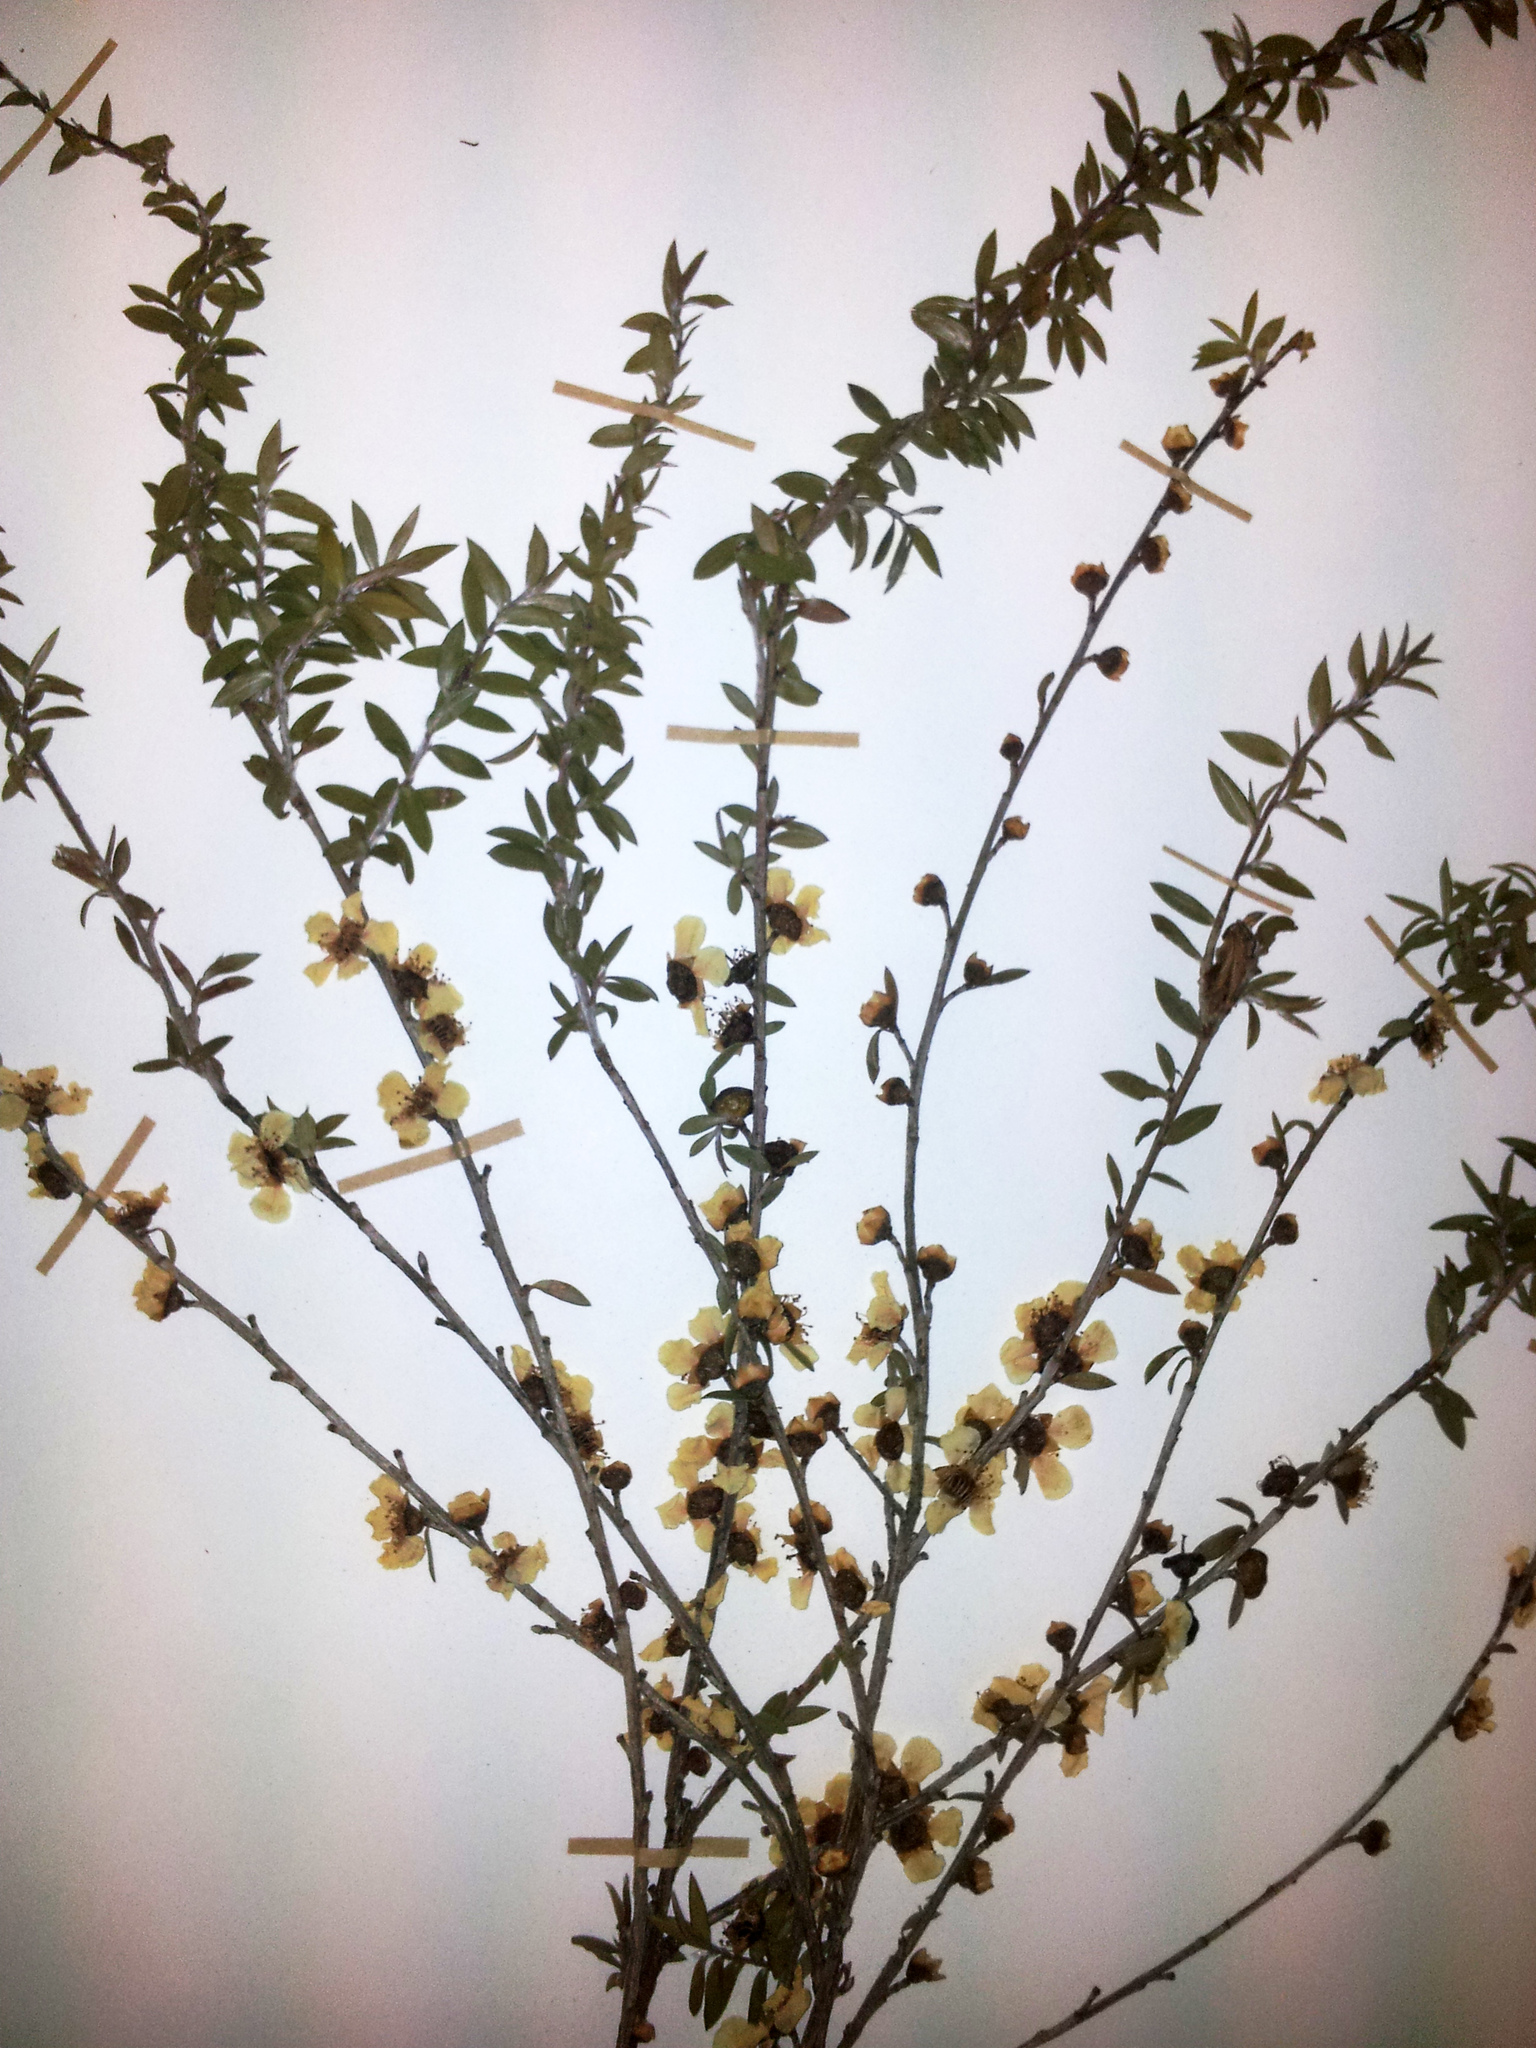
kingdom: Plantae
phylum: Tracheophyta
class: Magnoliopsida
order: Myrtales
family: Myrtaceae
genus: Leptospermum
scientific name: Leptospermum scoparium
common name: Broom tea-tree
